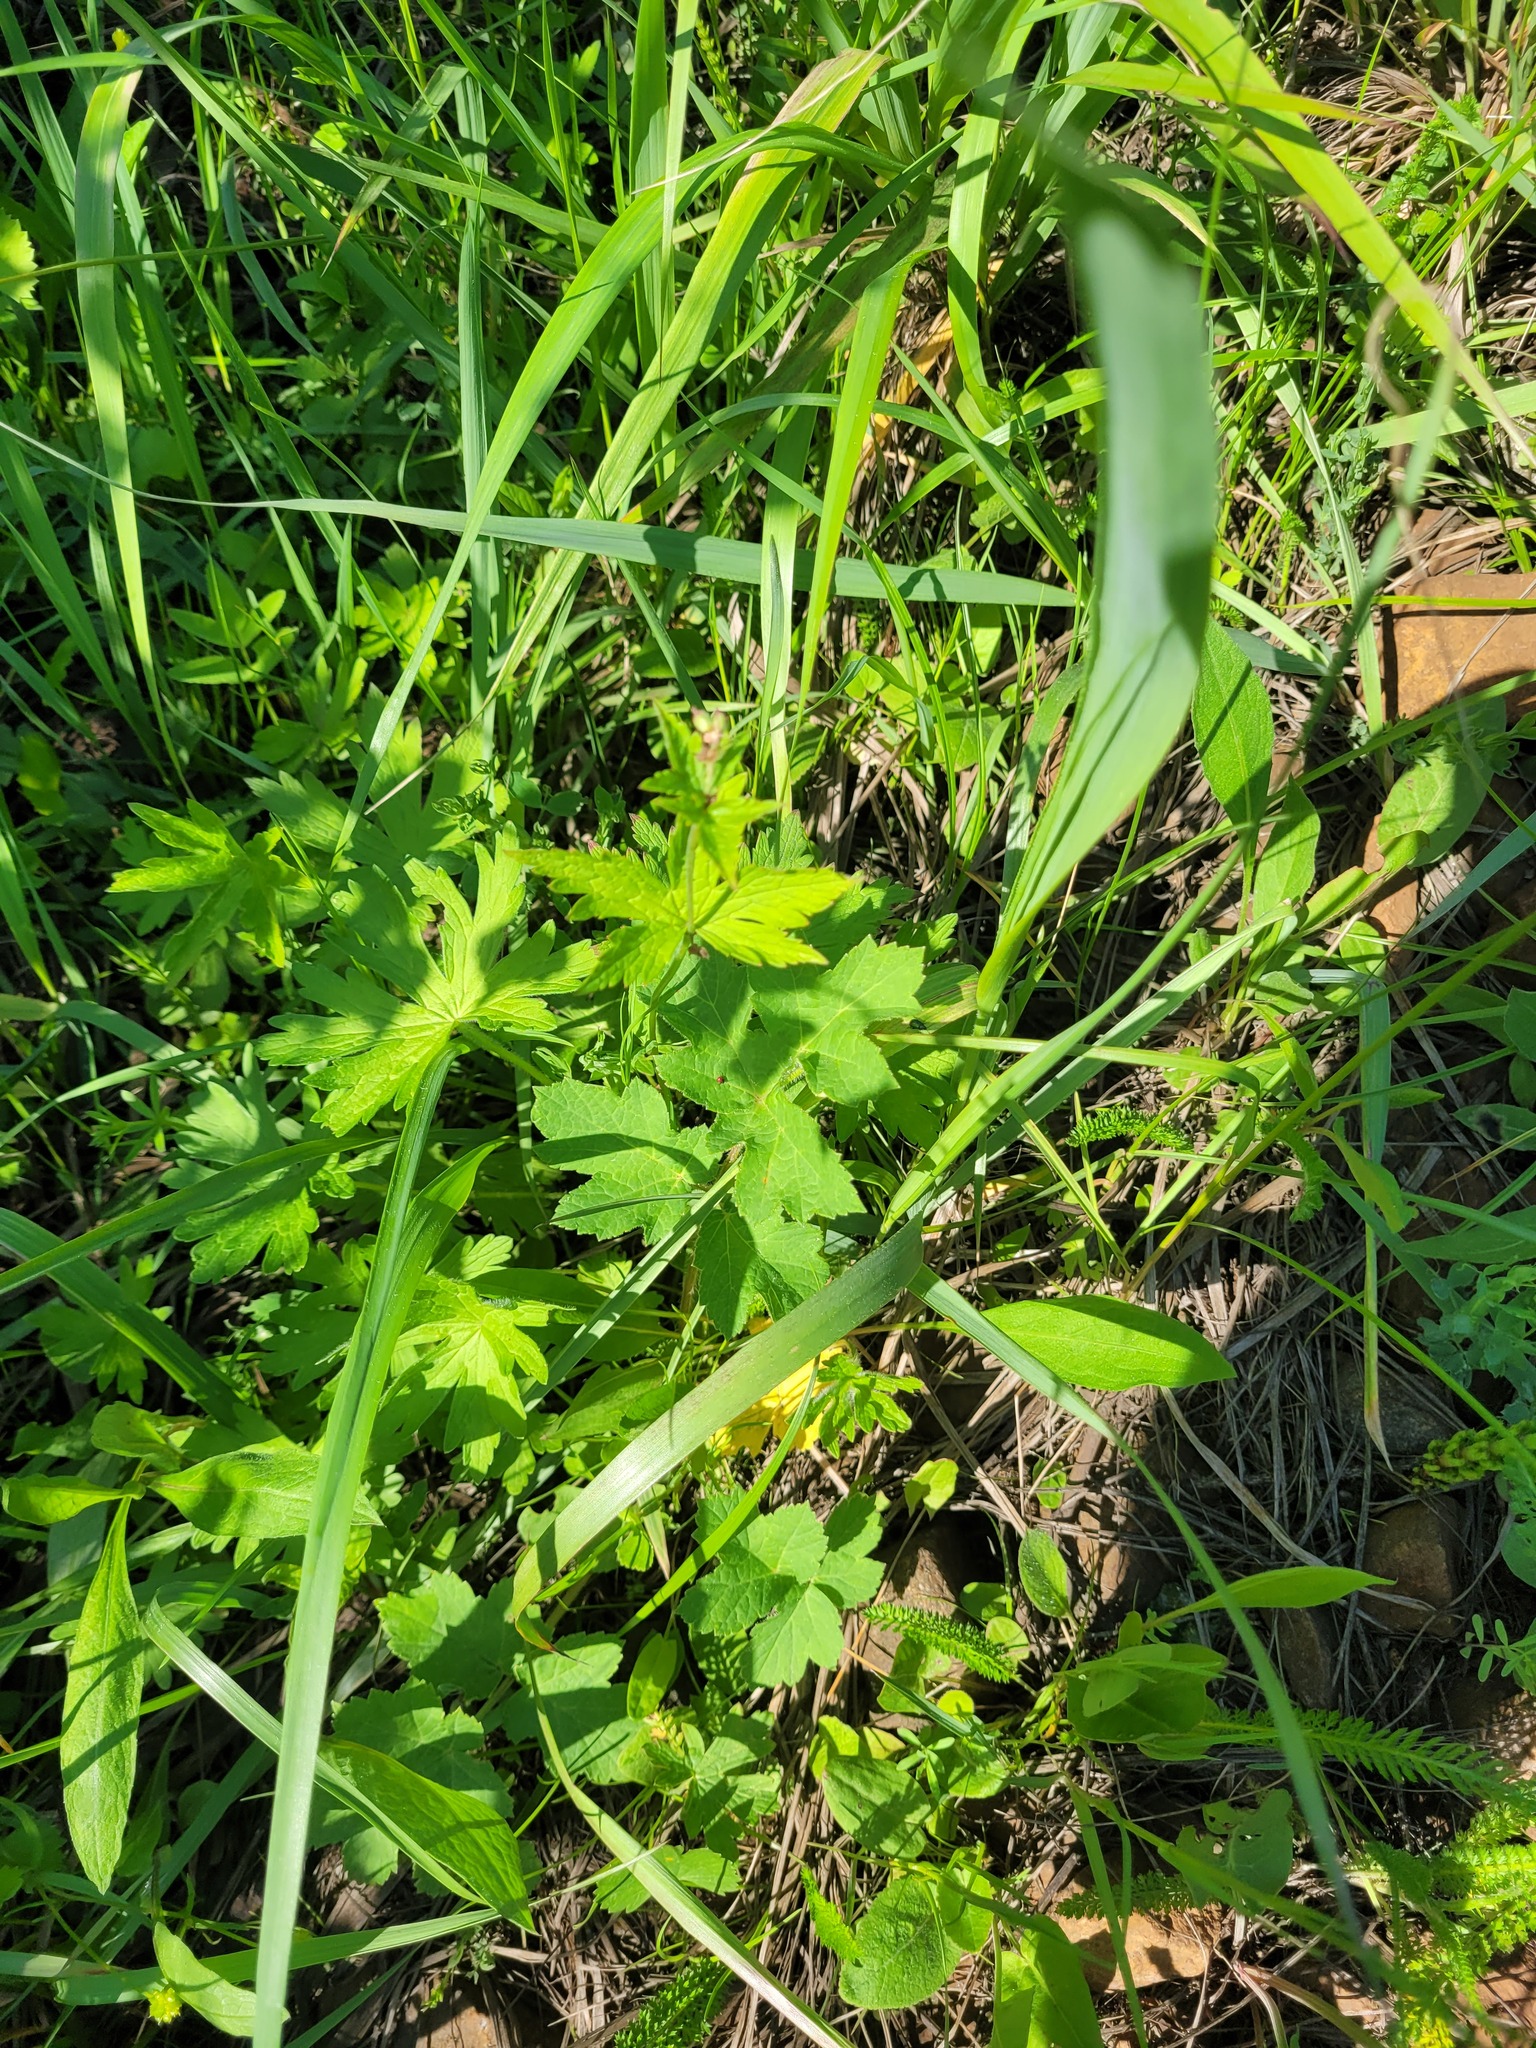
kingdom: Plantae
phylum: Tracheophyta
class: Magnoliopsida
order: Apiales
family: Apiaceae
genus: Heracleum
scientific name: Heracleum sphondylium
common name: Hogweed
